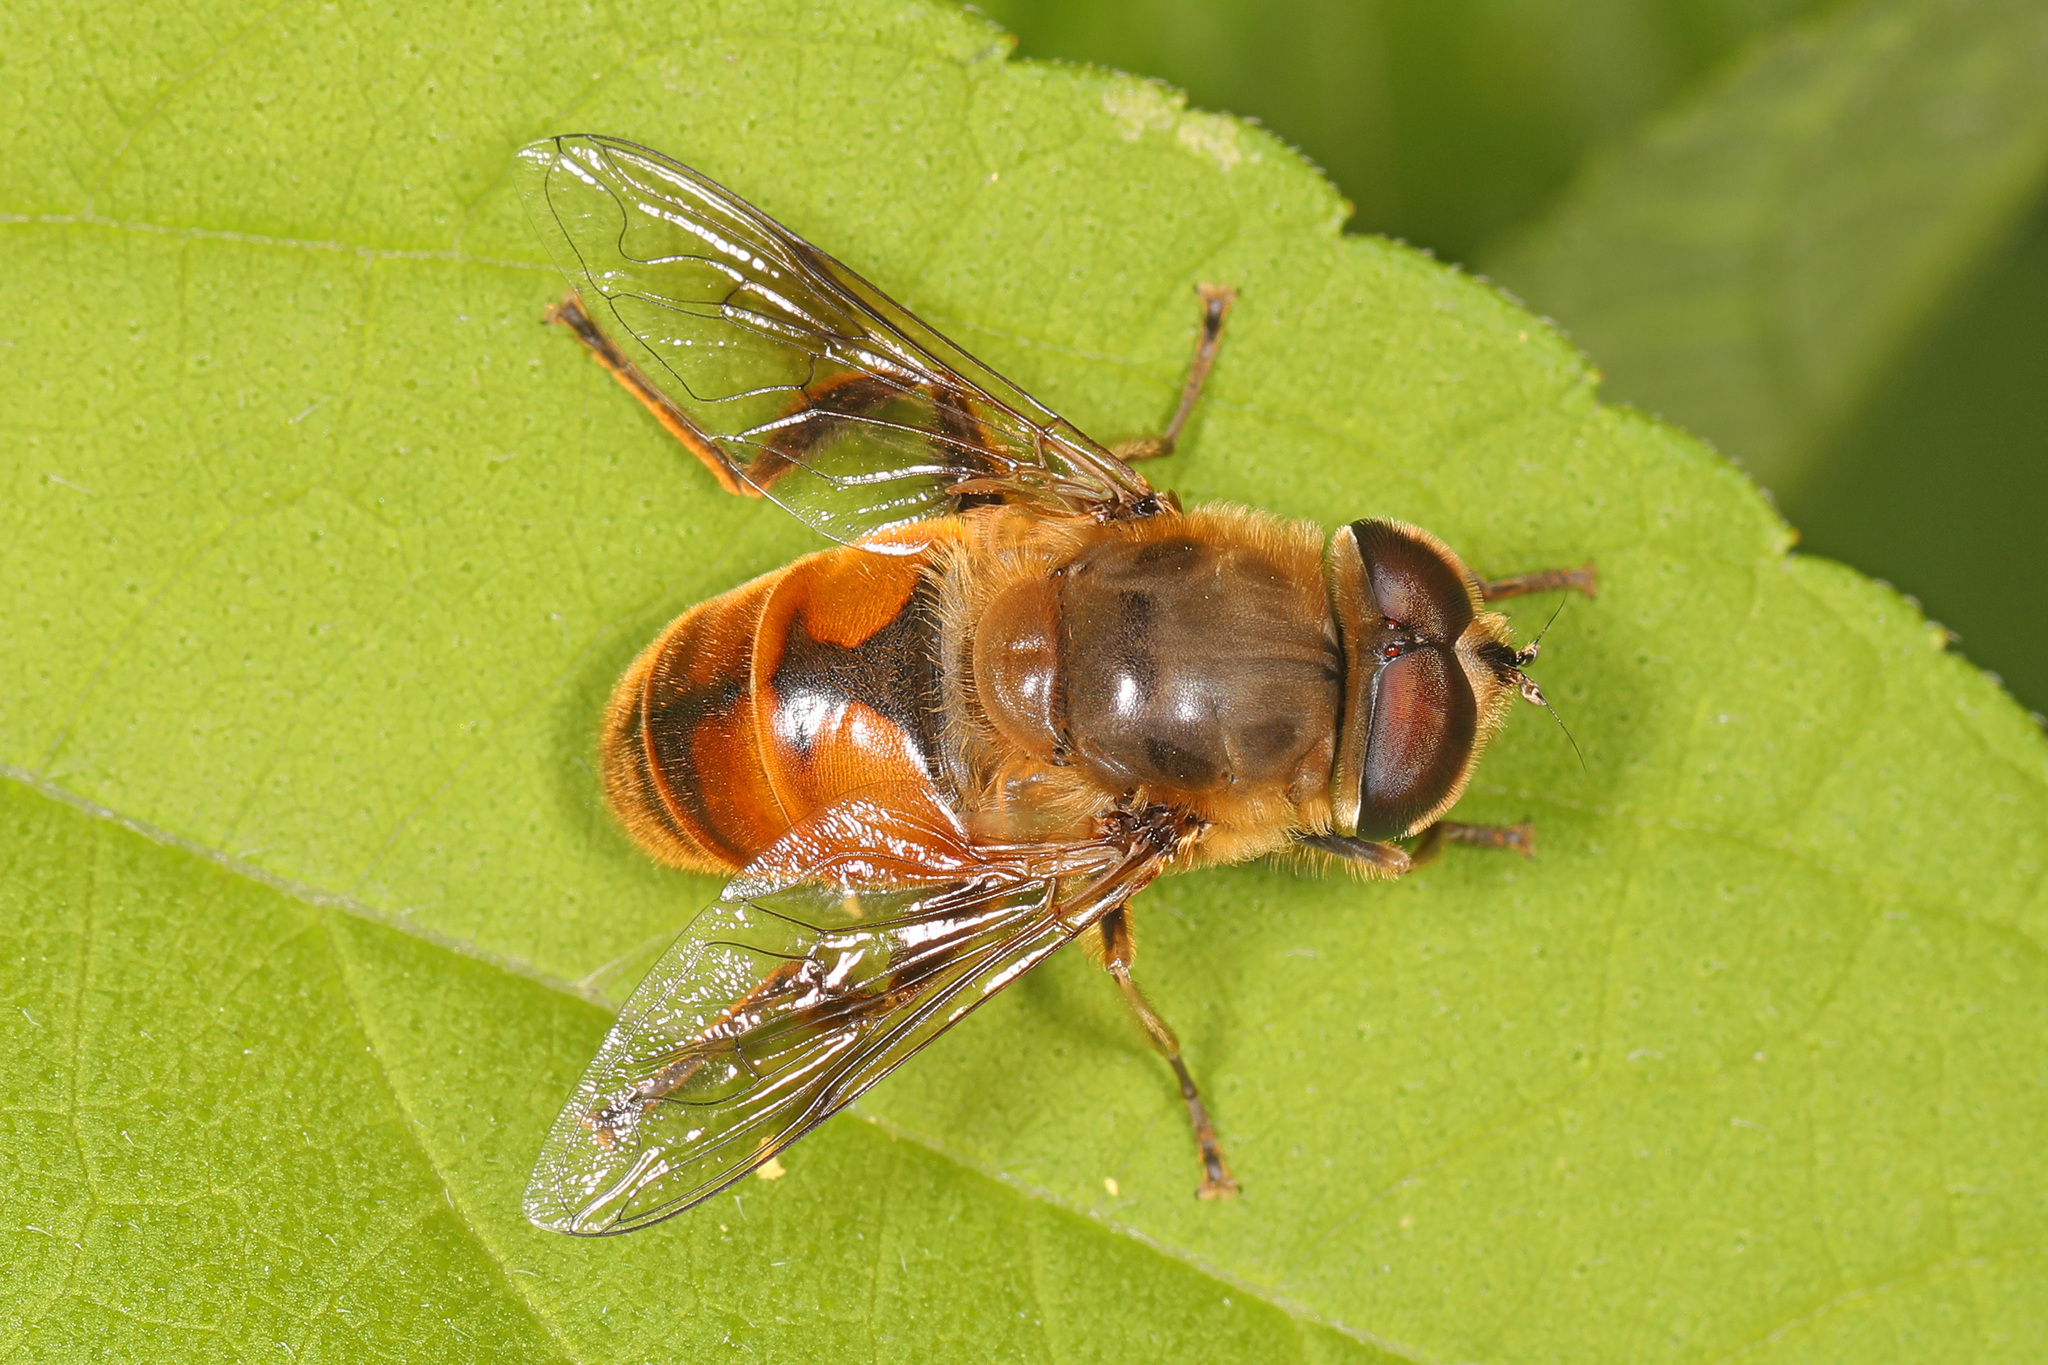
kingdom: Animalia
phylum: Arthropoda
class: Insecta
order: Diptera
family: Syrphidae
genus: Eristalis
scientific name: Eristalis tenax
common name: Drone fly
